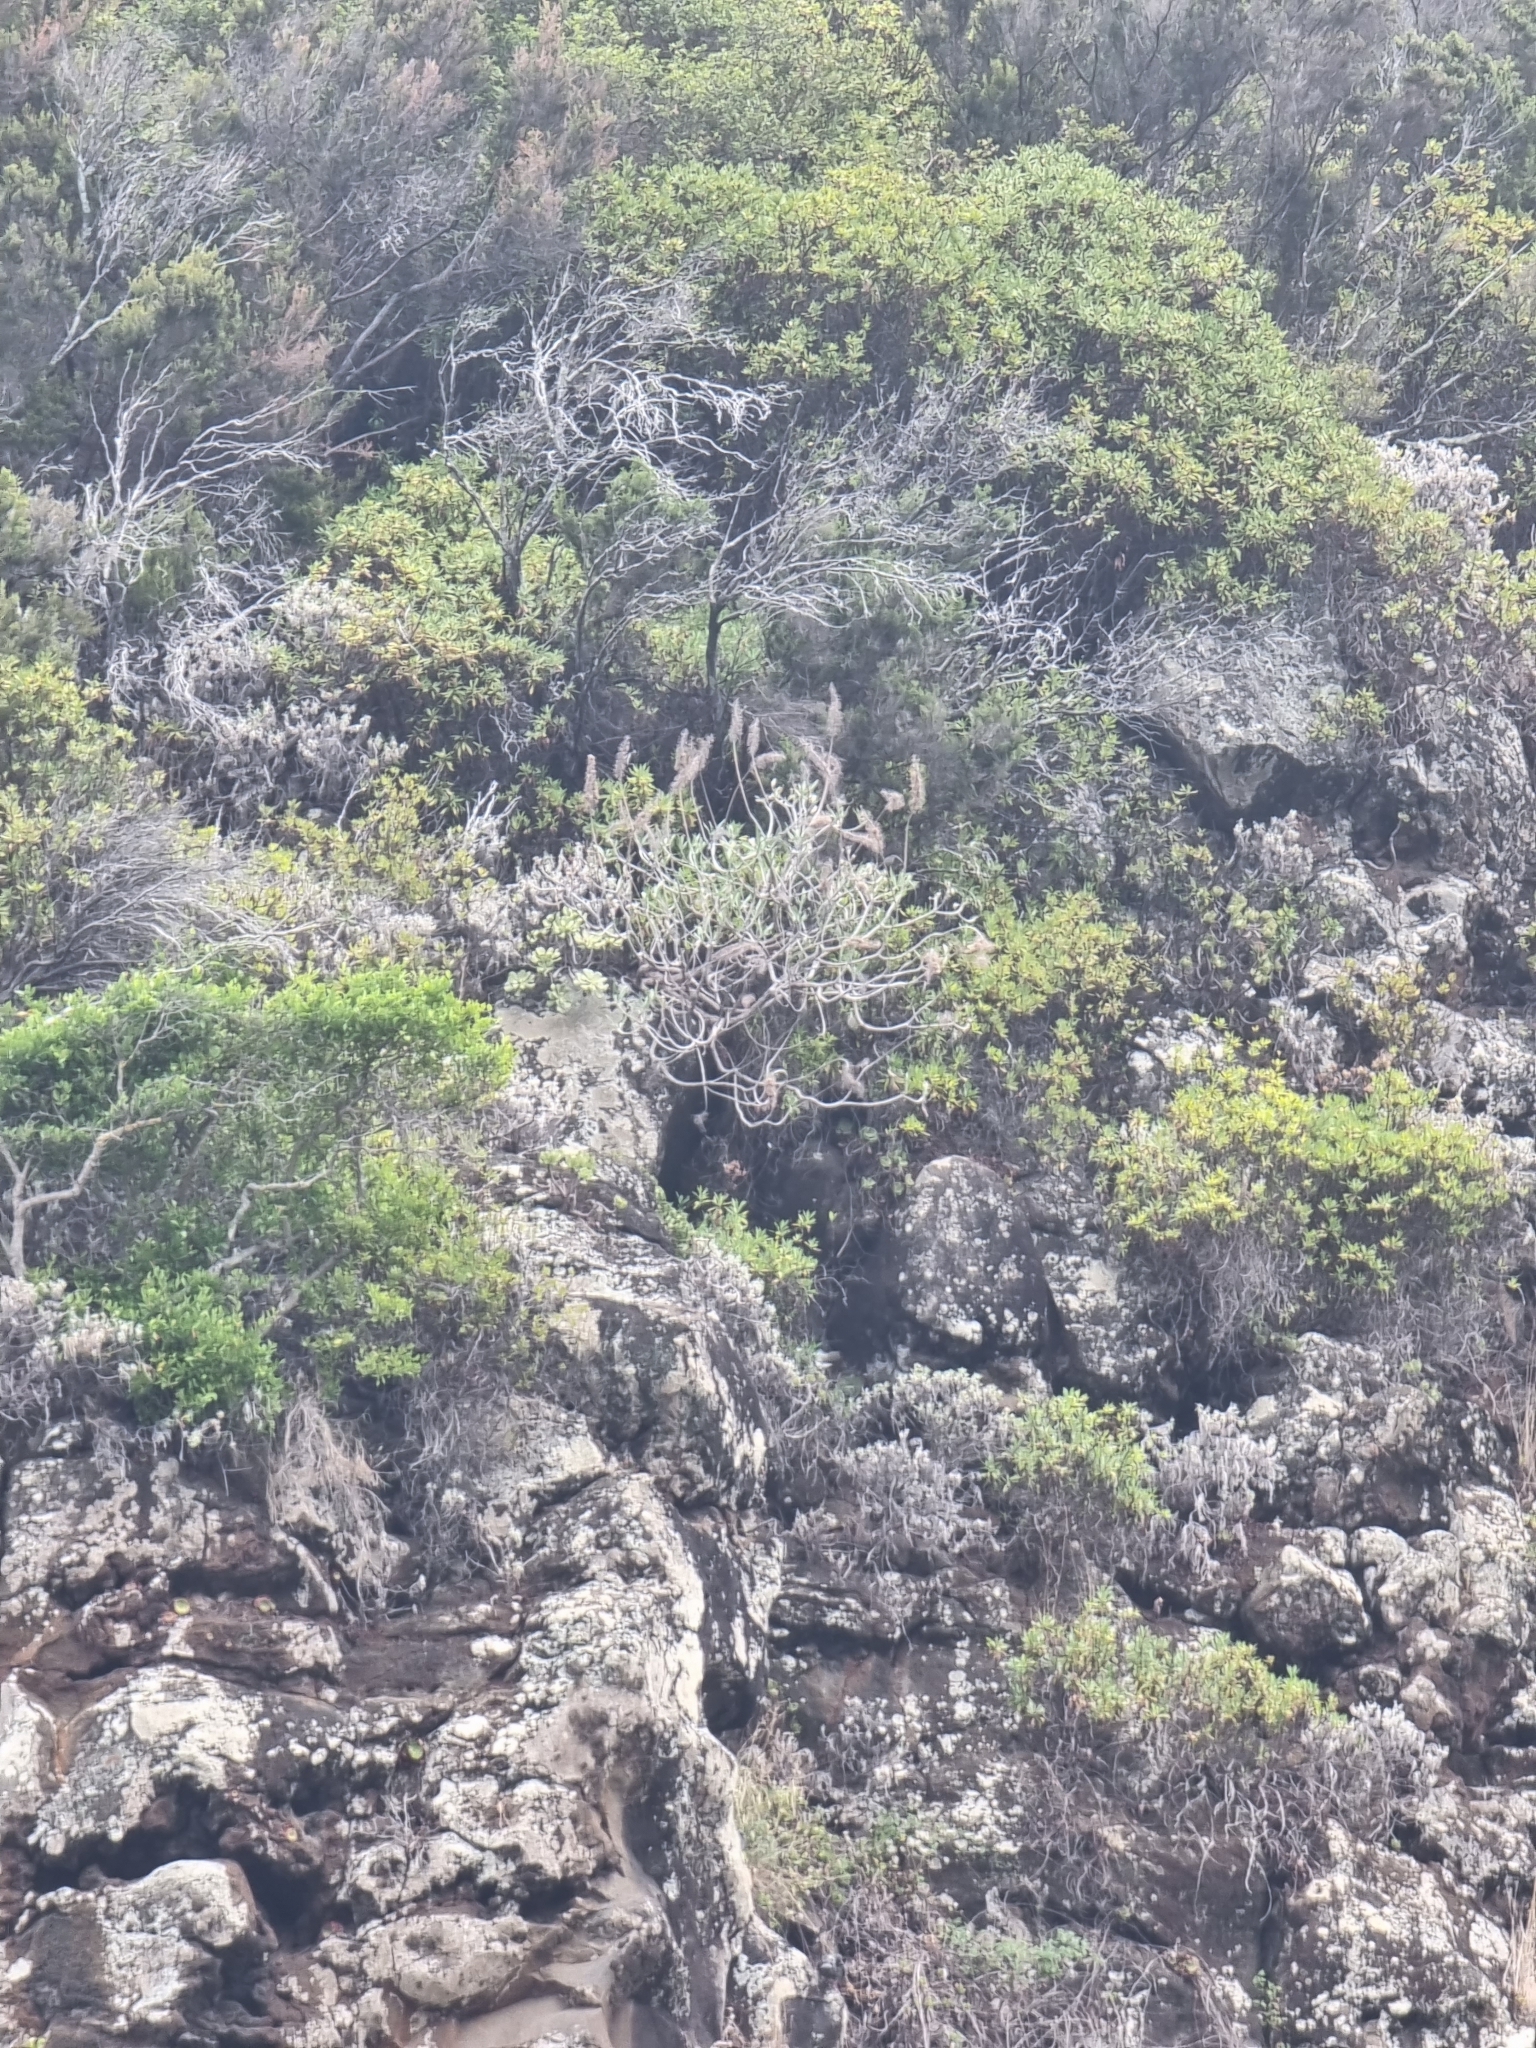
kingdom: Plantae
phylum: Tracheophyta
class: Magnoliopsida
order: Boraginales
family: Boraginaceae
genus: Echium
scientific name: Echium nervosum
